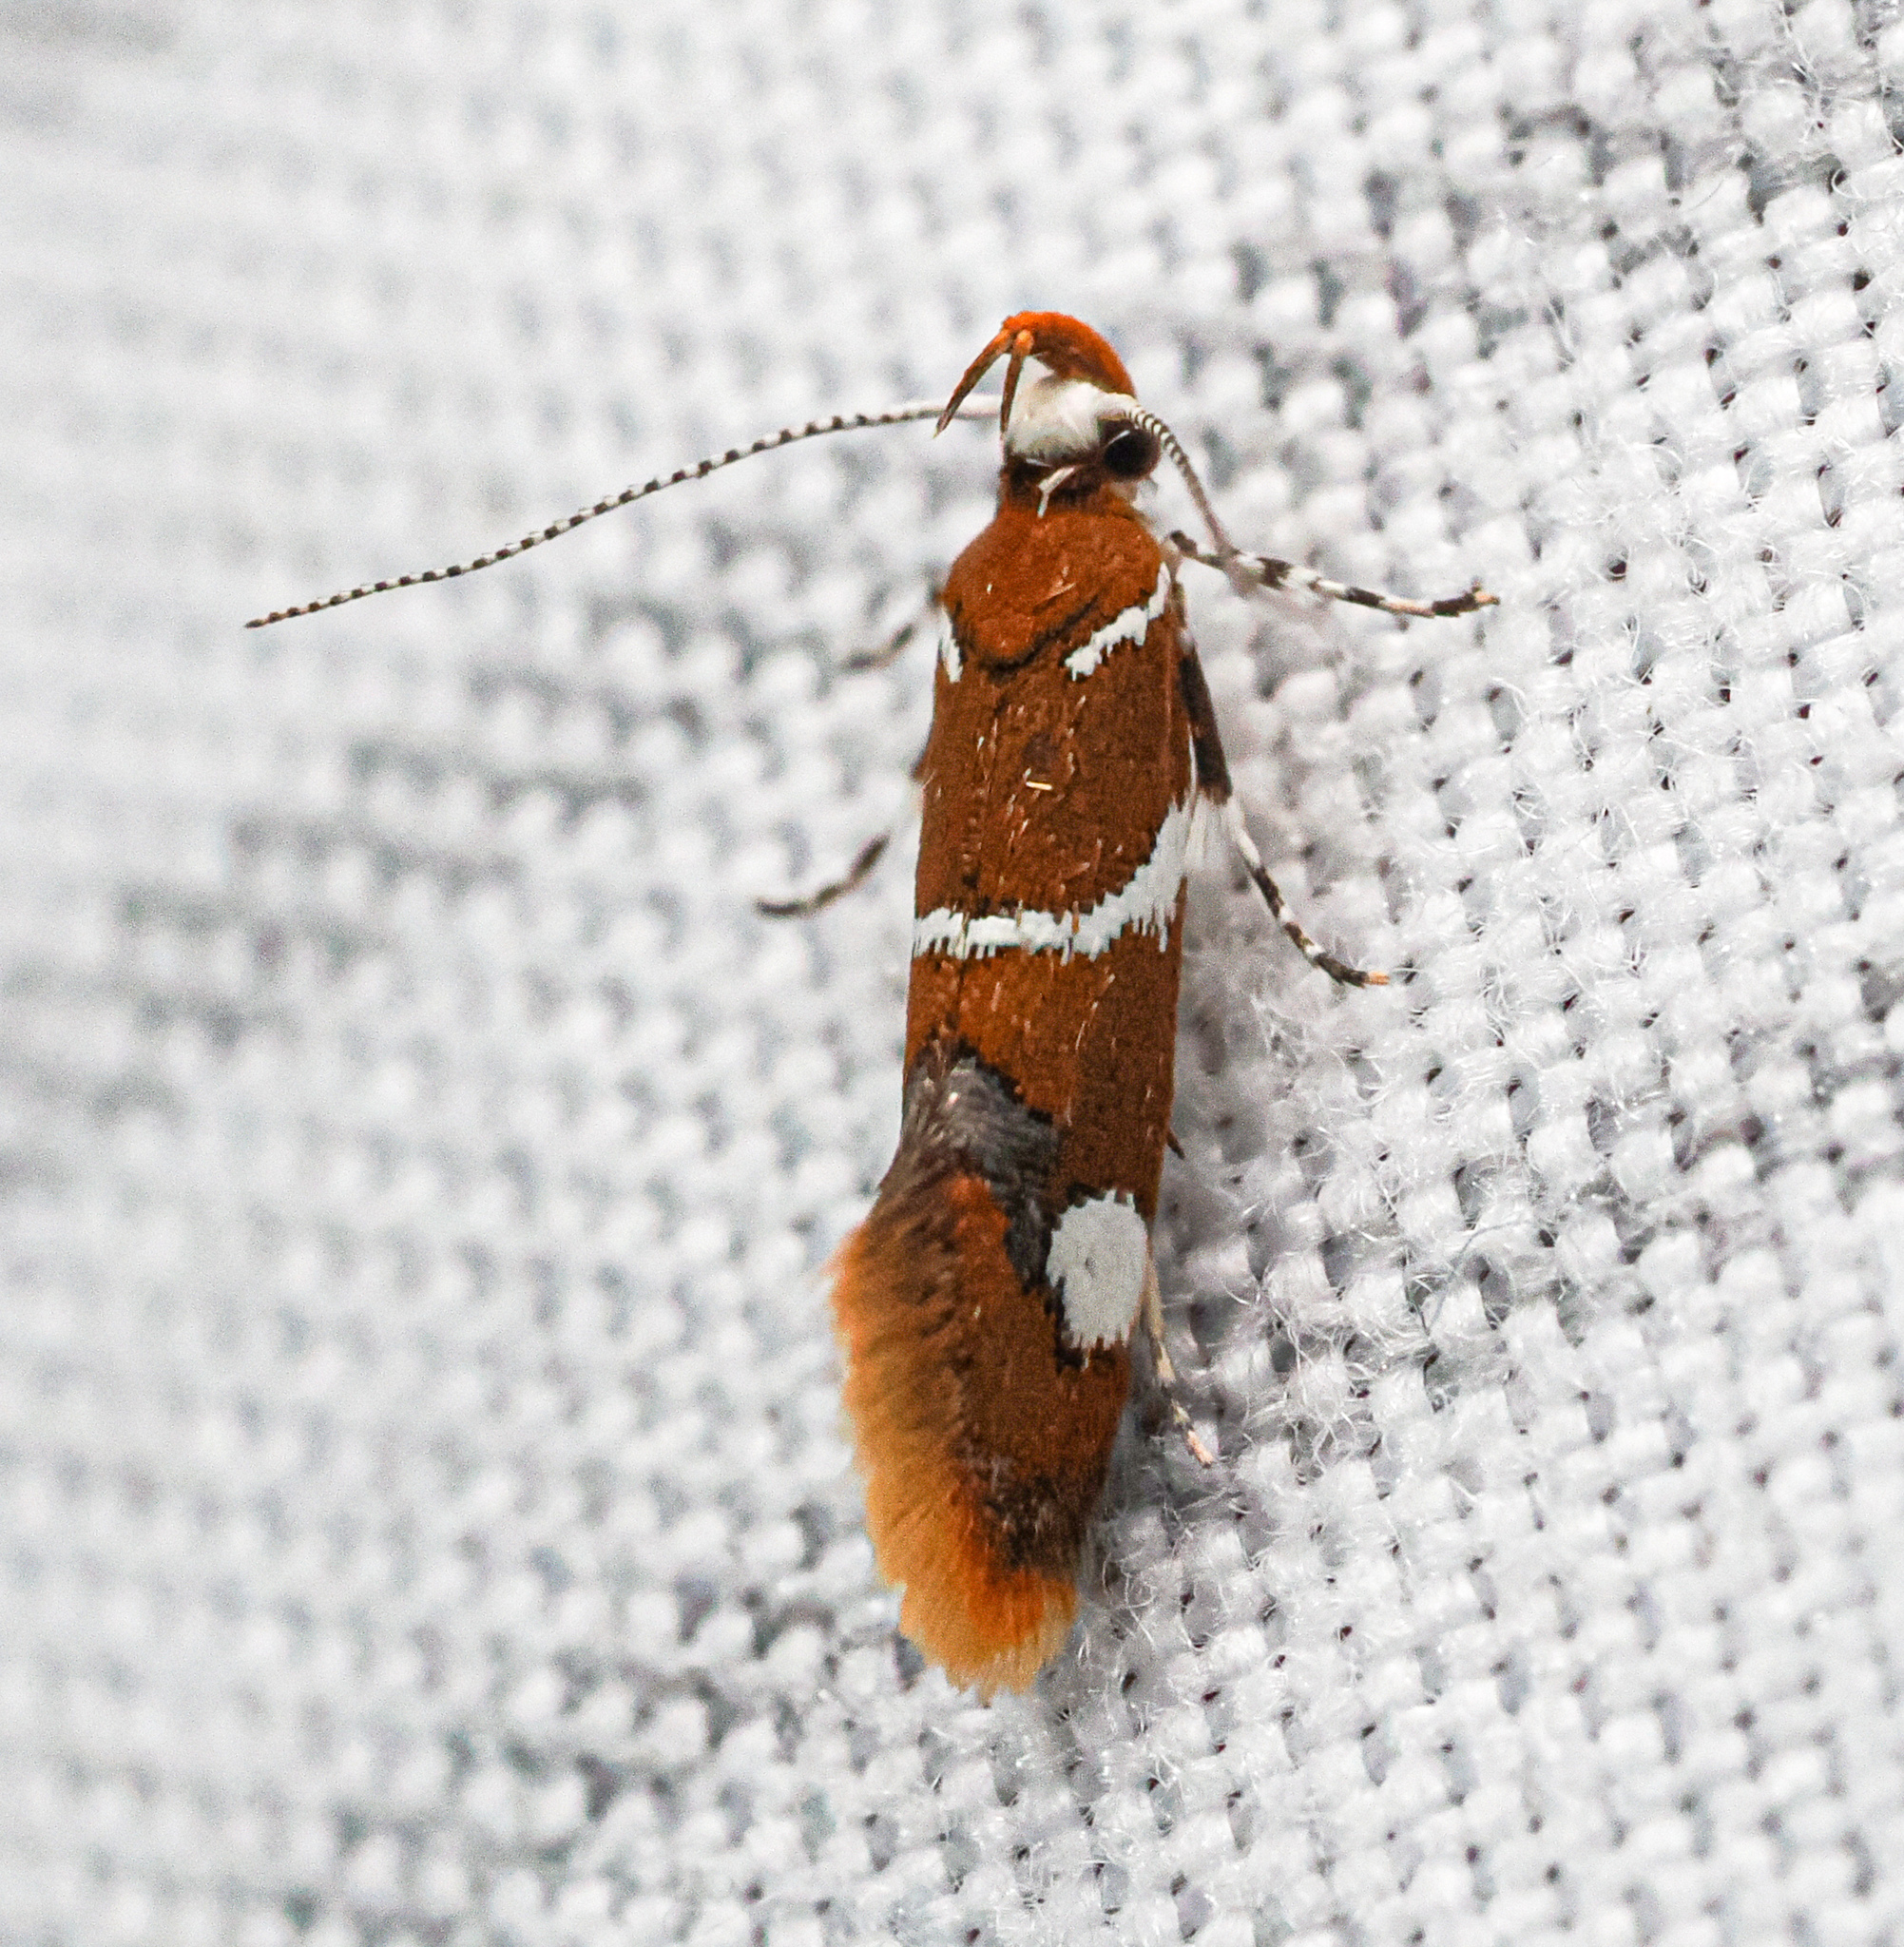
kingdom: Animalia
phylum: Arthropoda
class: Insecta
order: Lepidoptera
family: Oecophoridae
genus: Promalactis
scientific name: Promalactis suzukiella
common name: Moth
